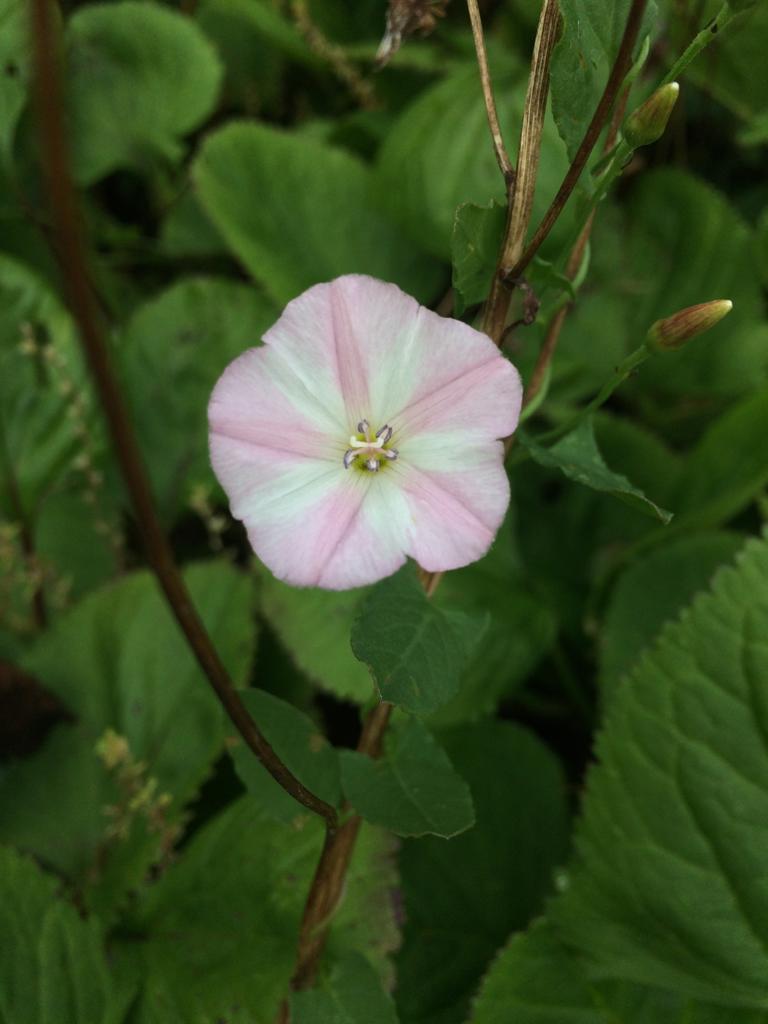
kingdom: Plantae
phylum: Tracheophyta
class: Magnoliopsida
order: Solanales
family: Convolvulaceae
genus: Convolvulus
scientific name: Convolvulus arvensis
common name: Field bindweed
